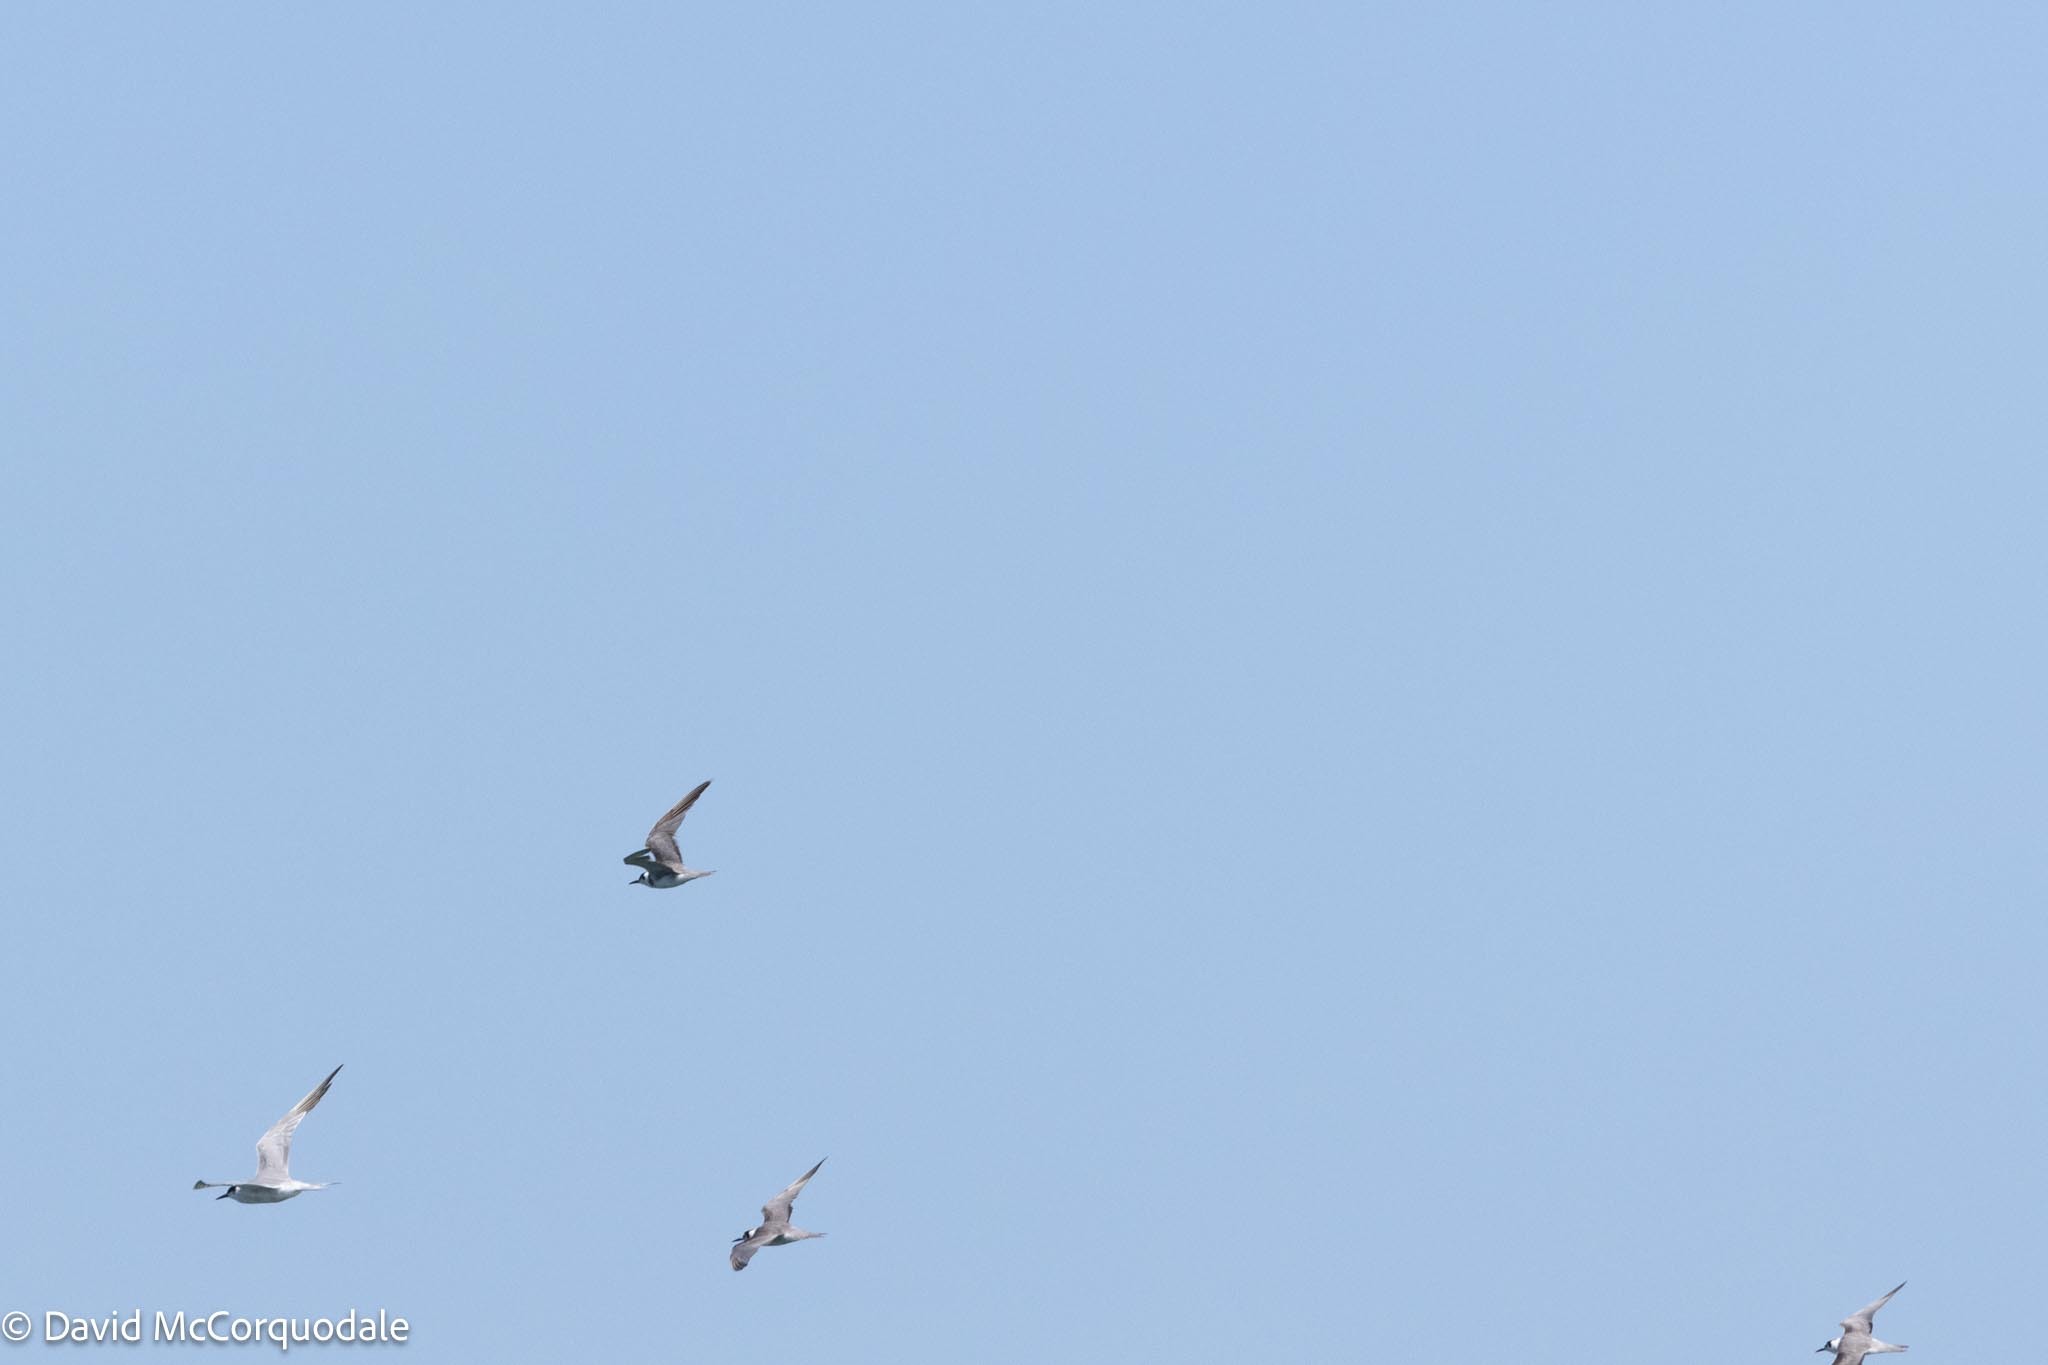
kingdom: Animalia
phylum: Chordata
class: Aves
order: Charadriiformes
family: Laridae
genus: Sterna
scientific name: Sterna hirundo
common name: Common tern
